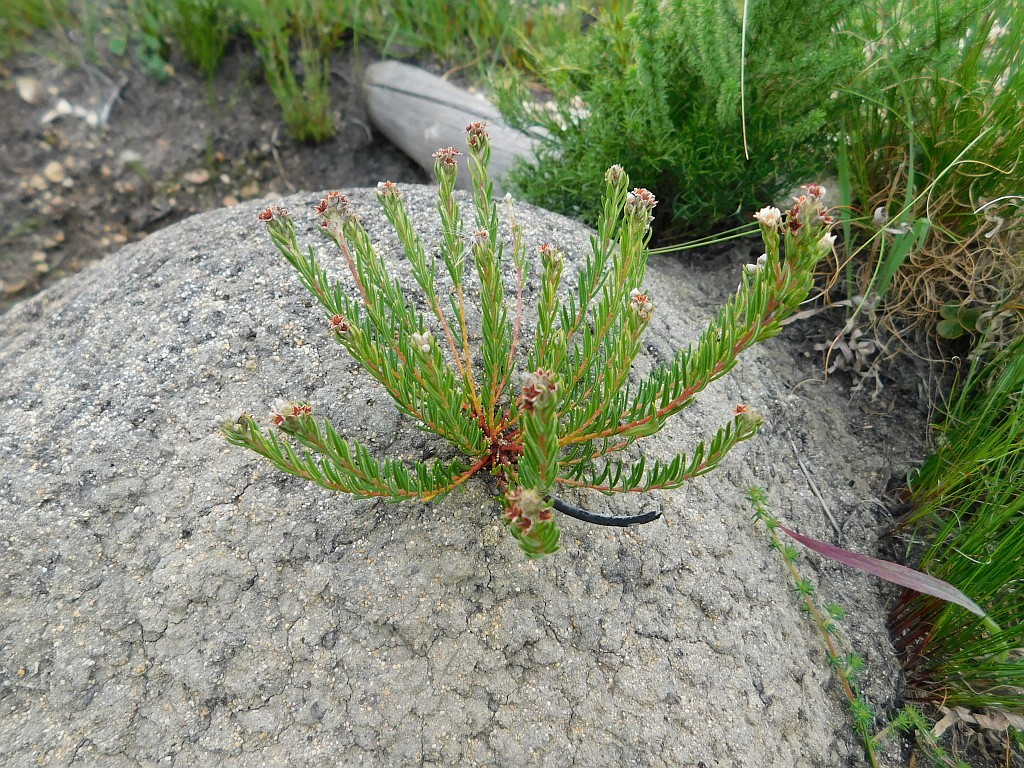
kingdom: Plantae
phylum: Tracheophyta
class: Magnoliopsida
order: Rosales
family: Rhamnaceae
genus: Phylica
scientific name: Phylica imberbis
